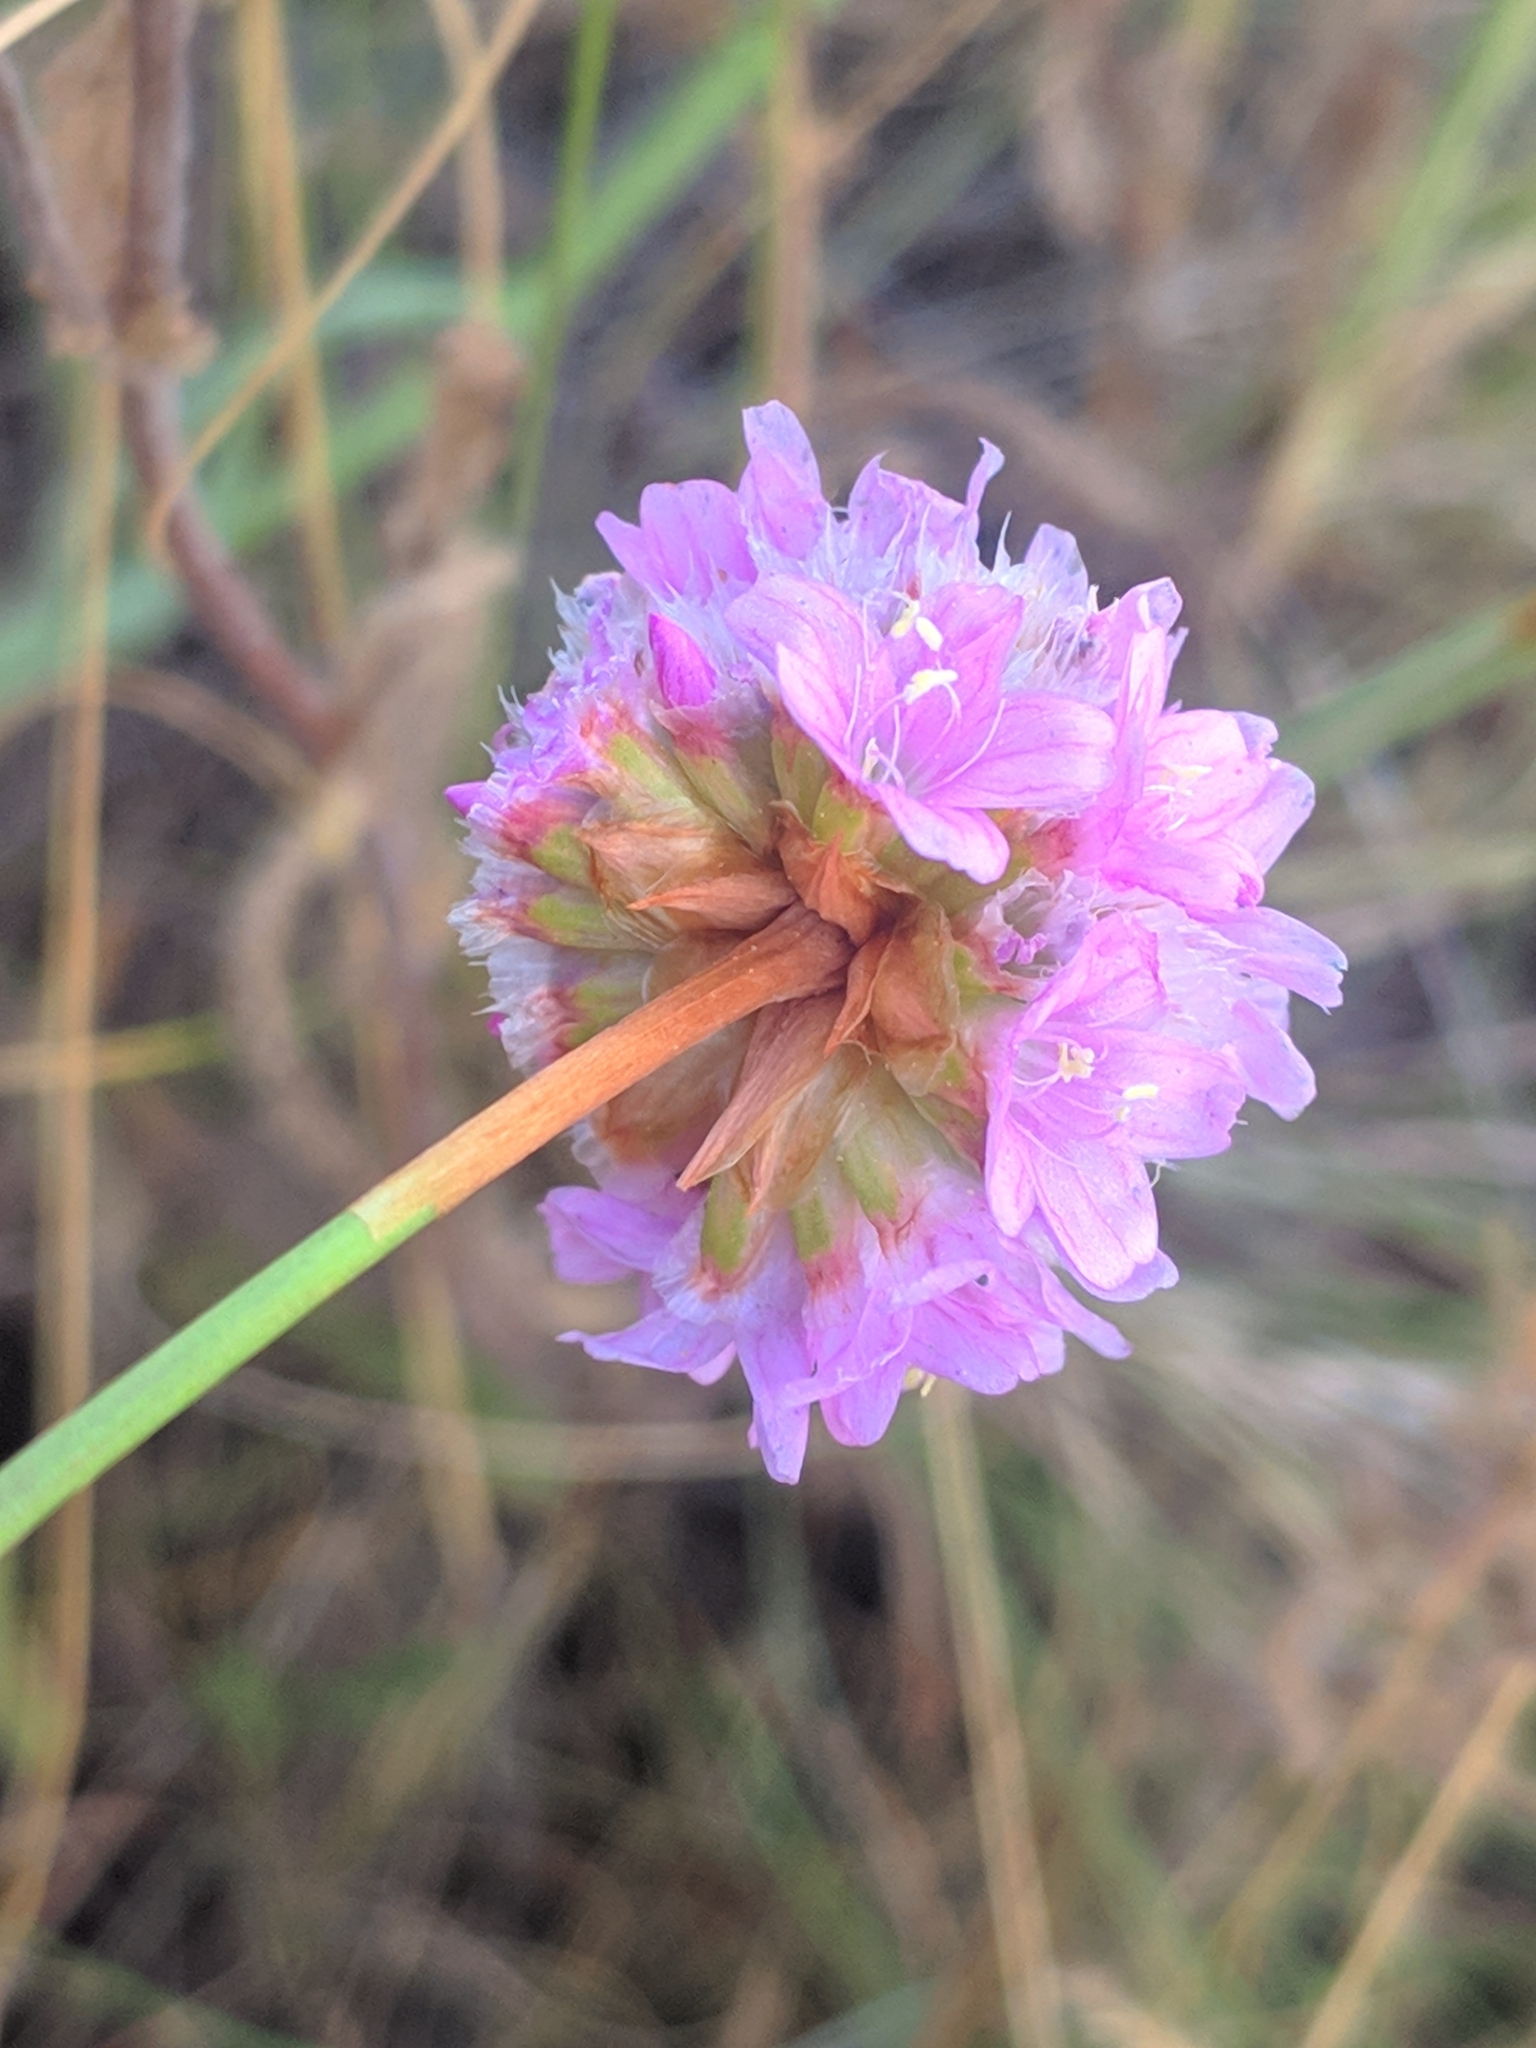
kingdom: Plantae
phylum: Tracheophyta
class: Magnoliopsida
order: Caryophyllales
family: Plumbaginaceae
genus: Armeria
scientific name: Armeria maritima
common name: Thrift
